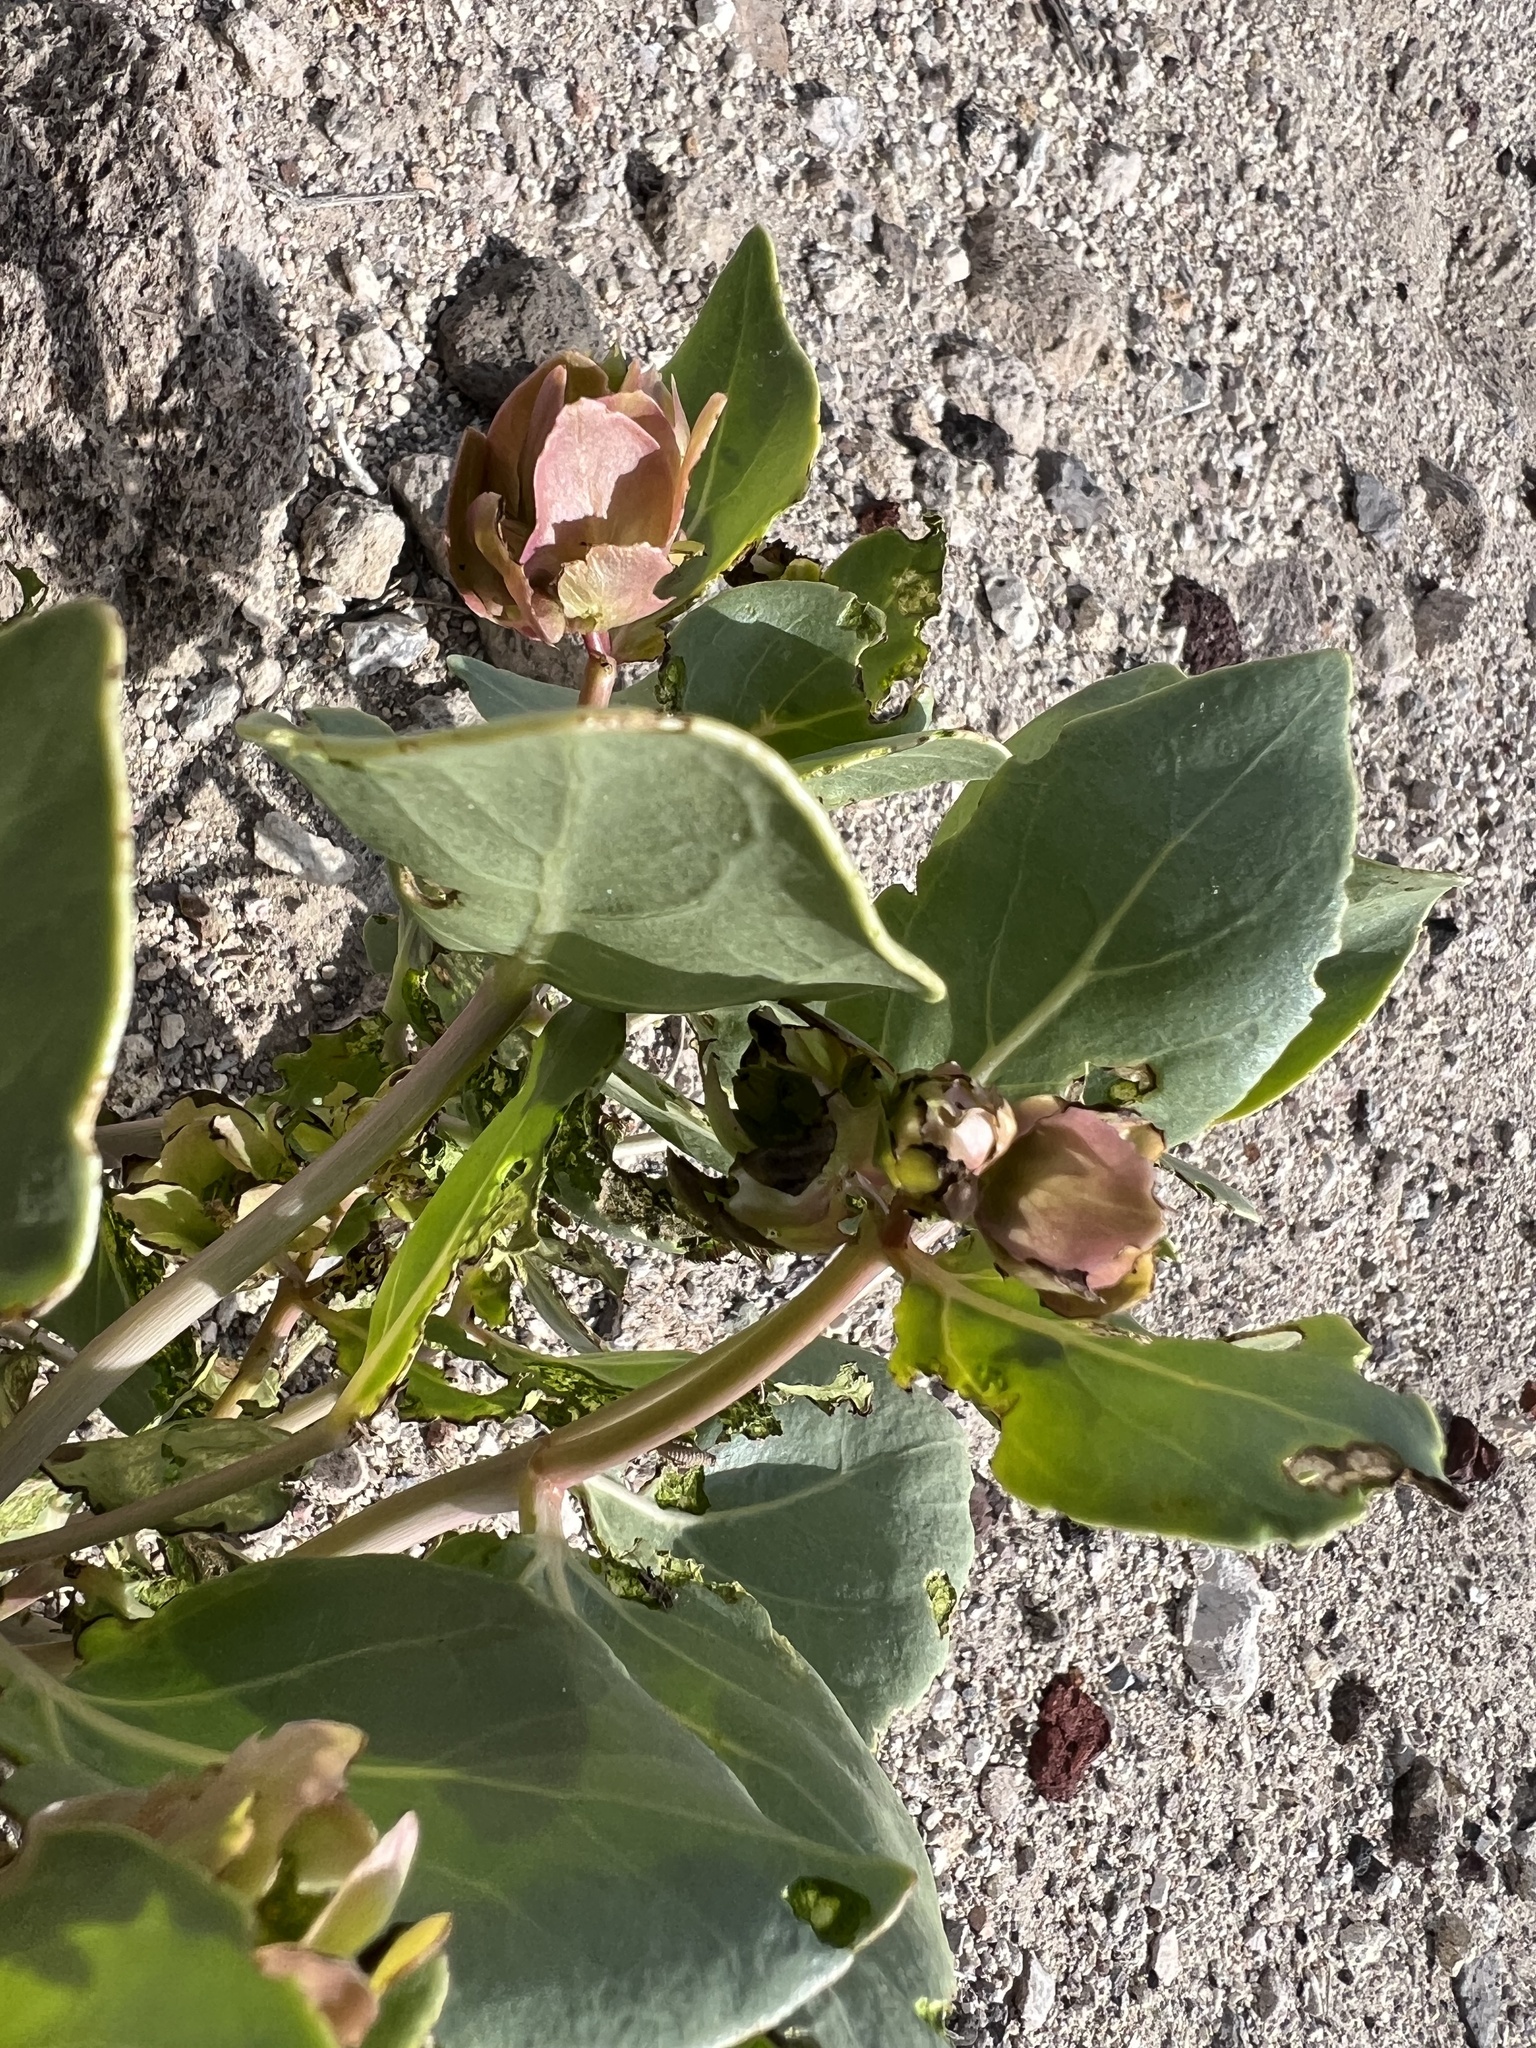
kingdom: Plantae
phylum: Tracheophyta
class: Magnoliopsida
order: Caryophyllales
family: Nyctaginaceae
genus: Mirabilis
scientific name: Mirabilis alipes
